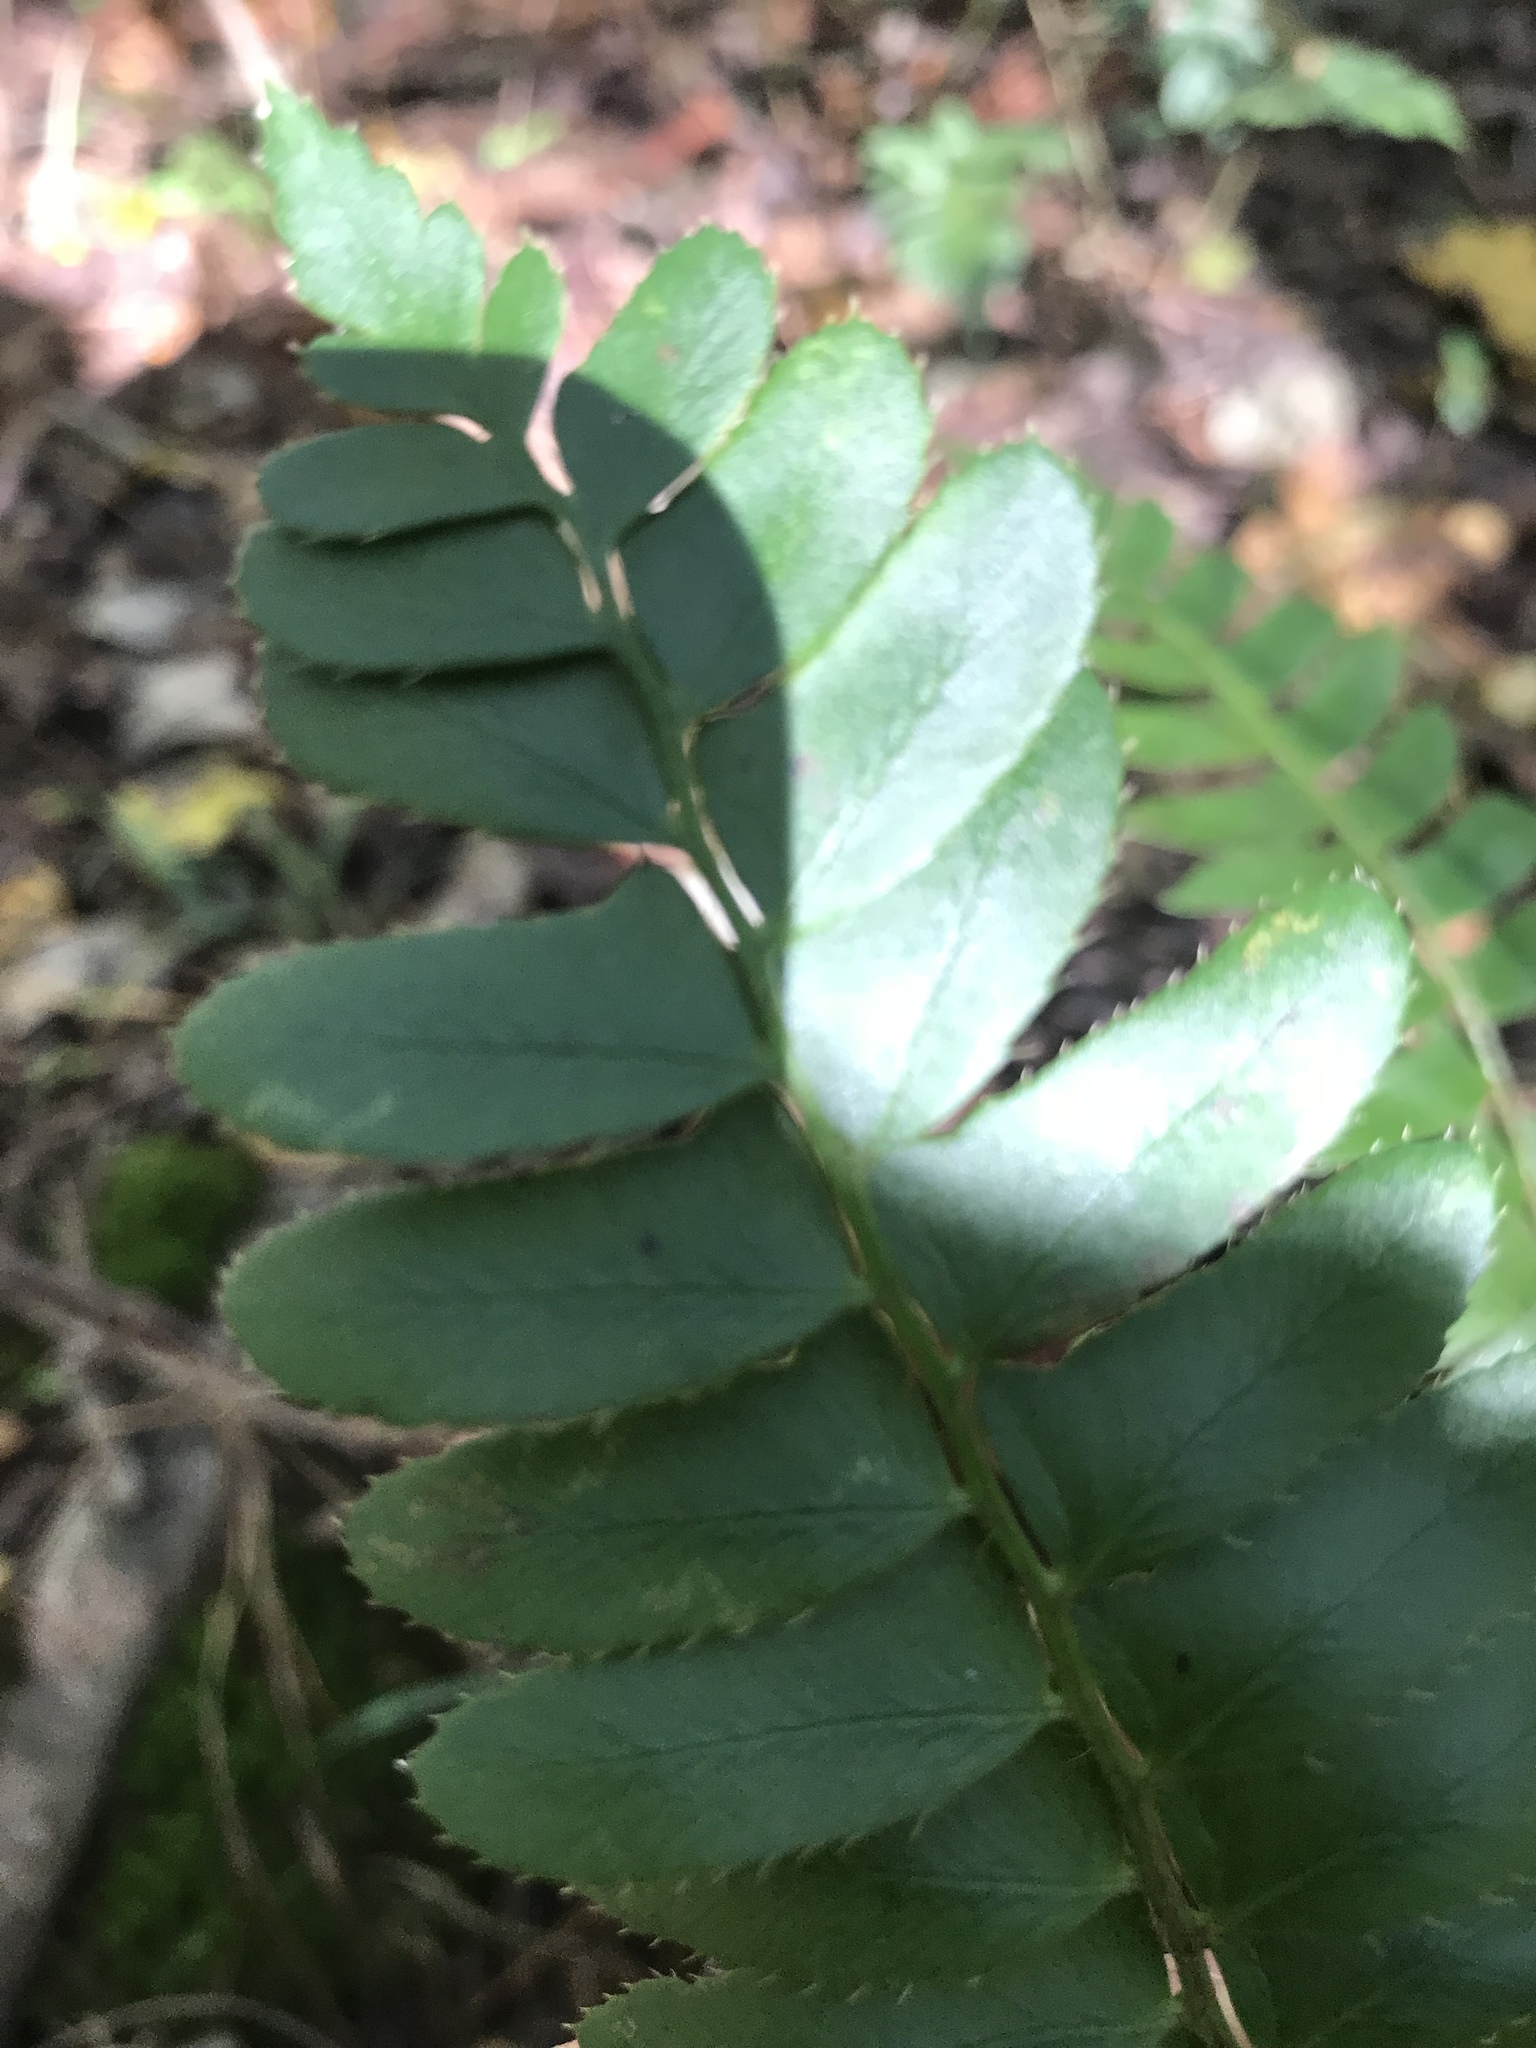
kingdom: Plantae
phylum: Tracheophyta
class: Polypodiopsida
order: Polypodiales
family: Dryopteridaceae
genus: Polystichum
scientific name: Polystichum acrostichoides
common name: Christmas fern
